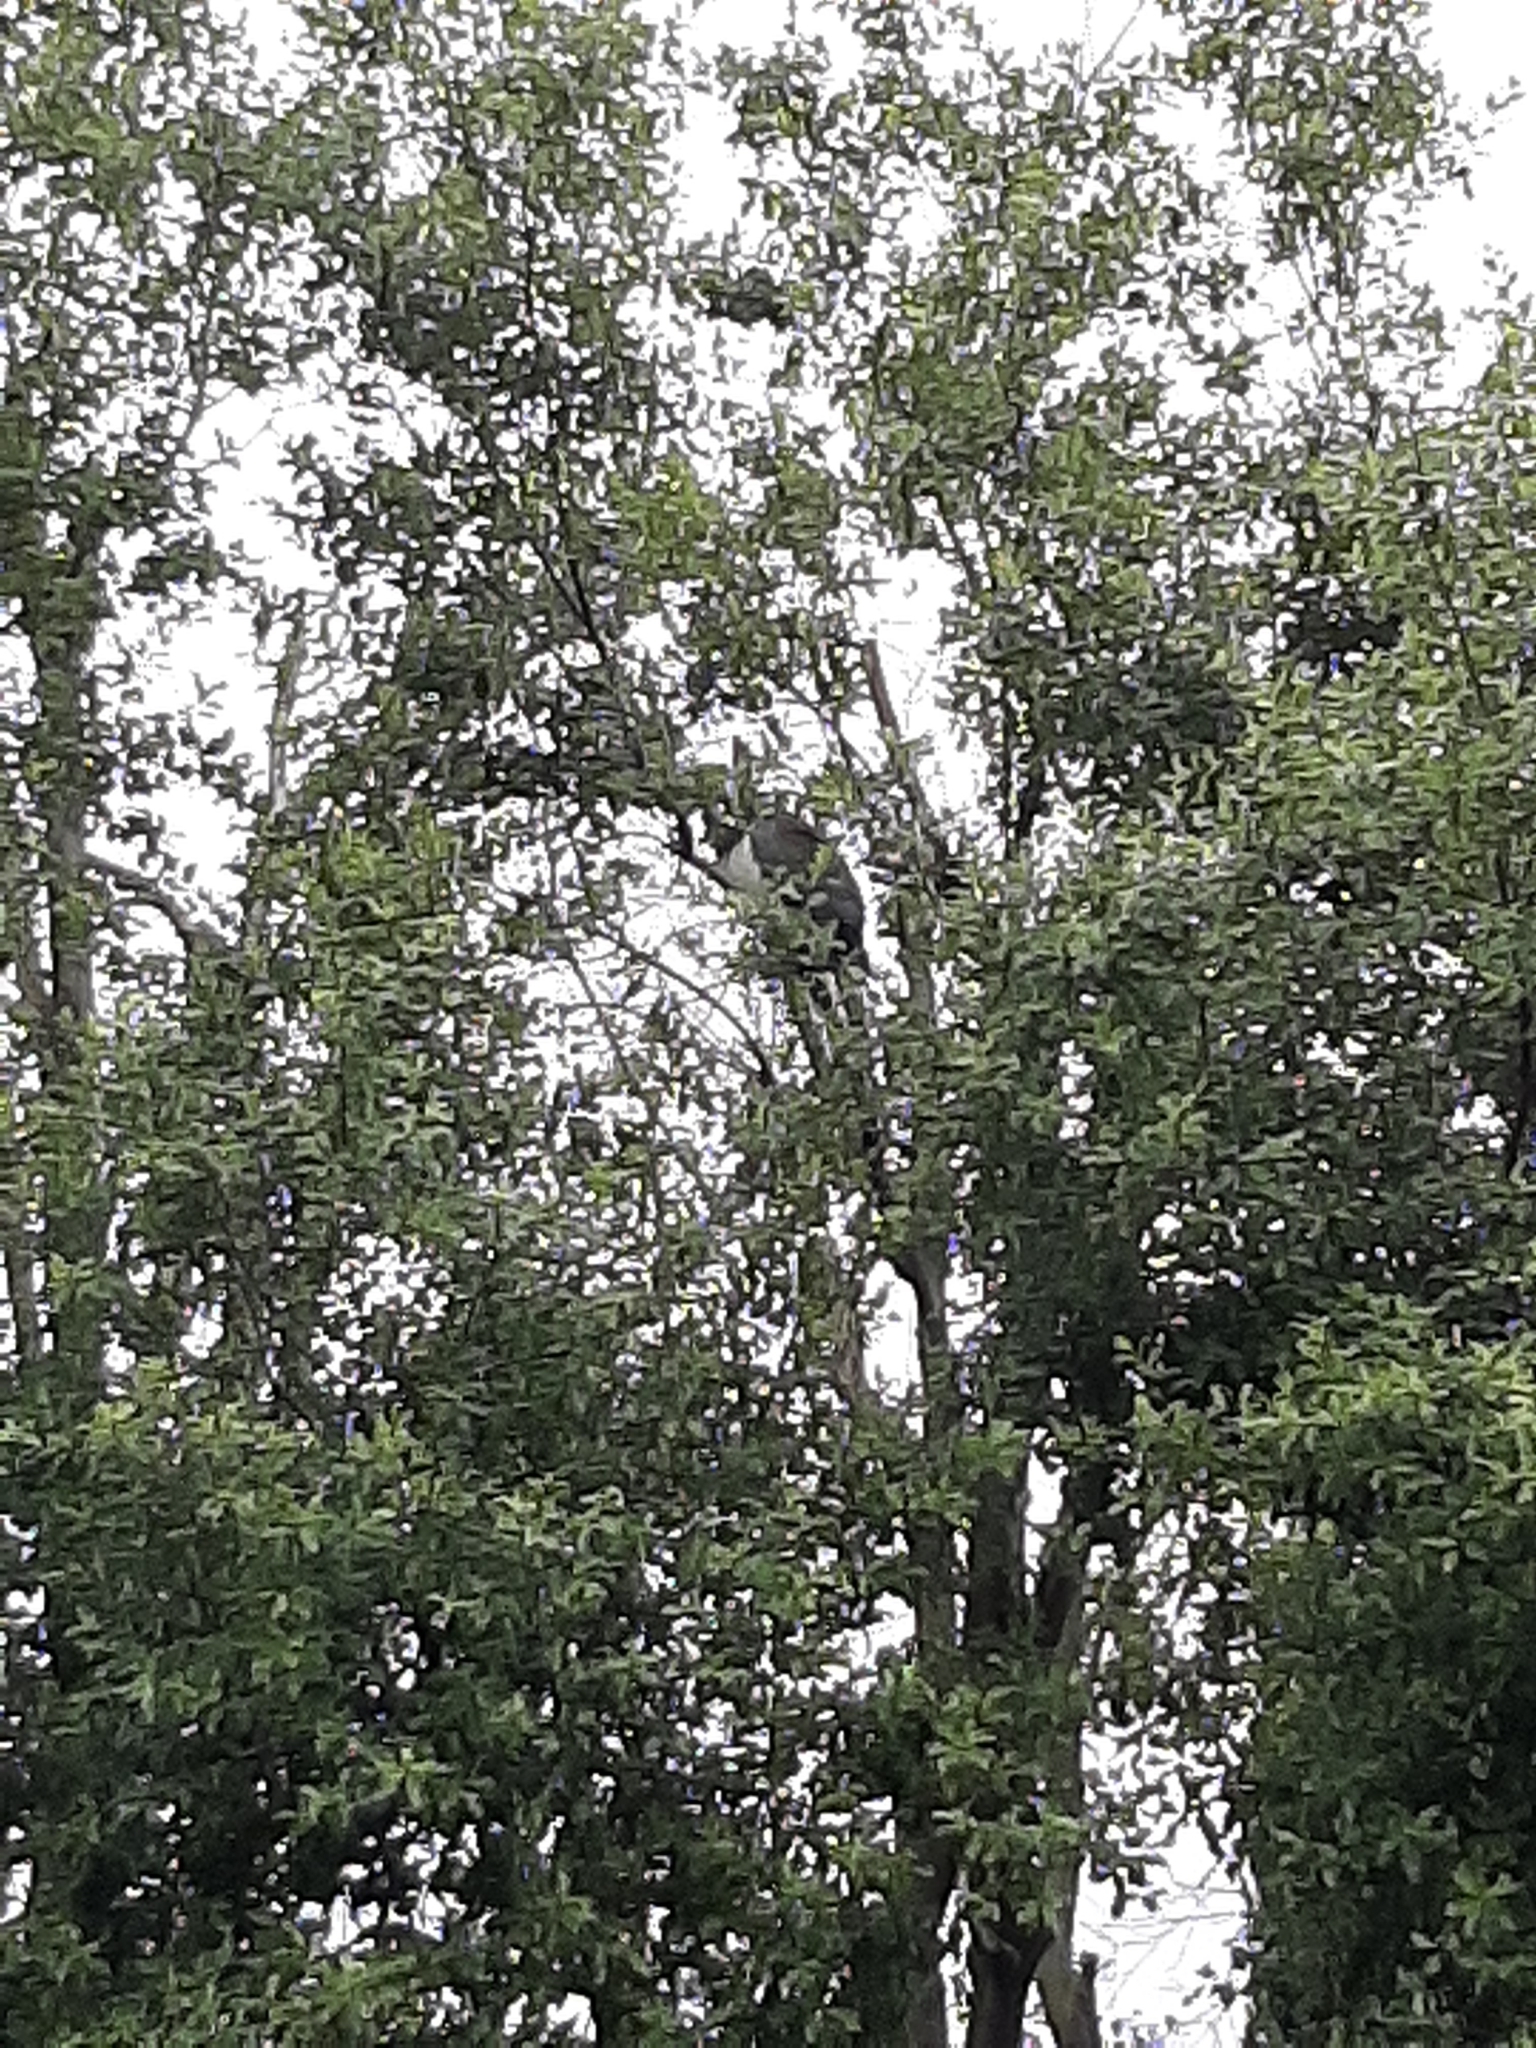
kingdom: Animalia
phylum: Chordata
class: Aves
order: Columbiformes
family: Columbidae
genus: Hemiphaga
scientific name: Hemiphaga novaeseelandiae
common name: New zealand pigeon
